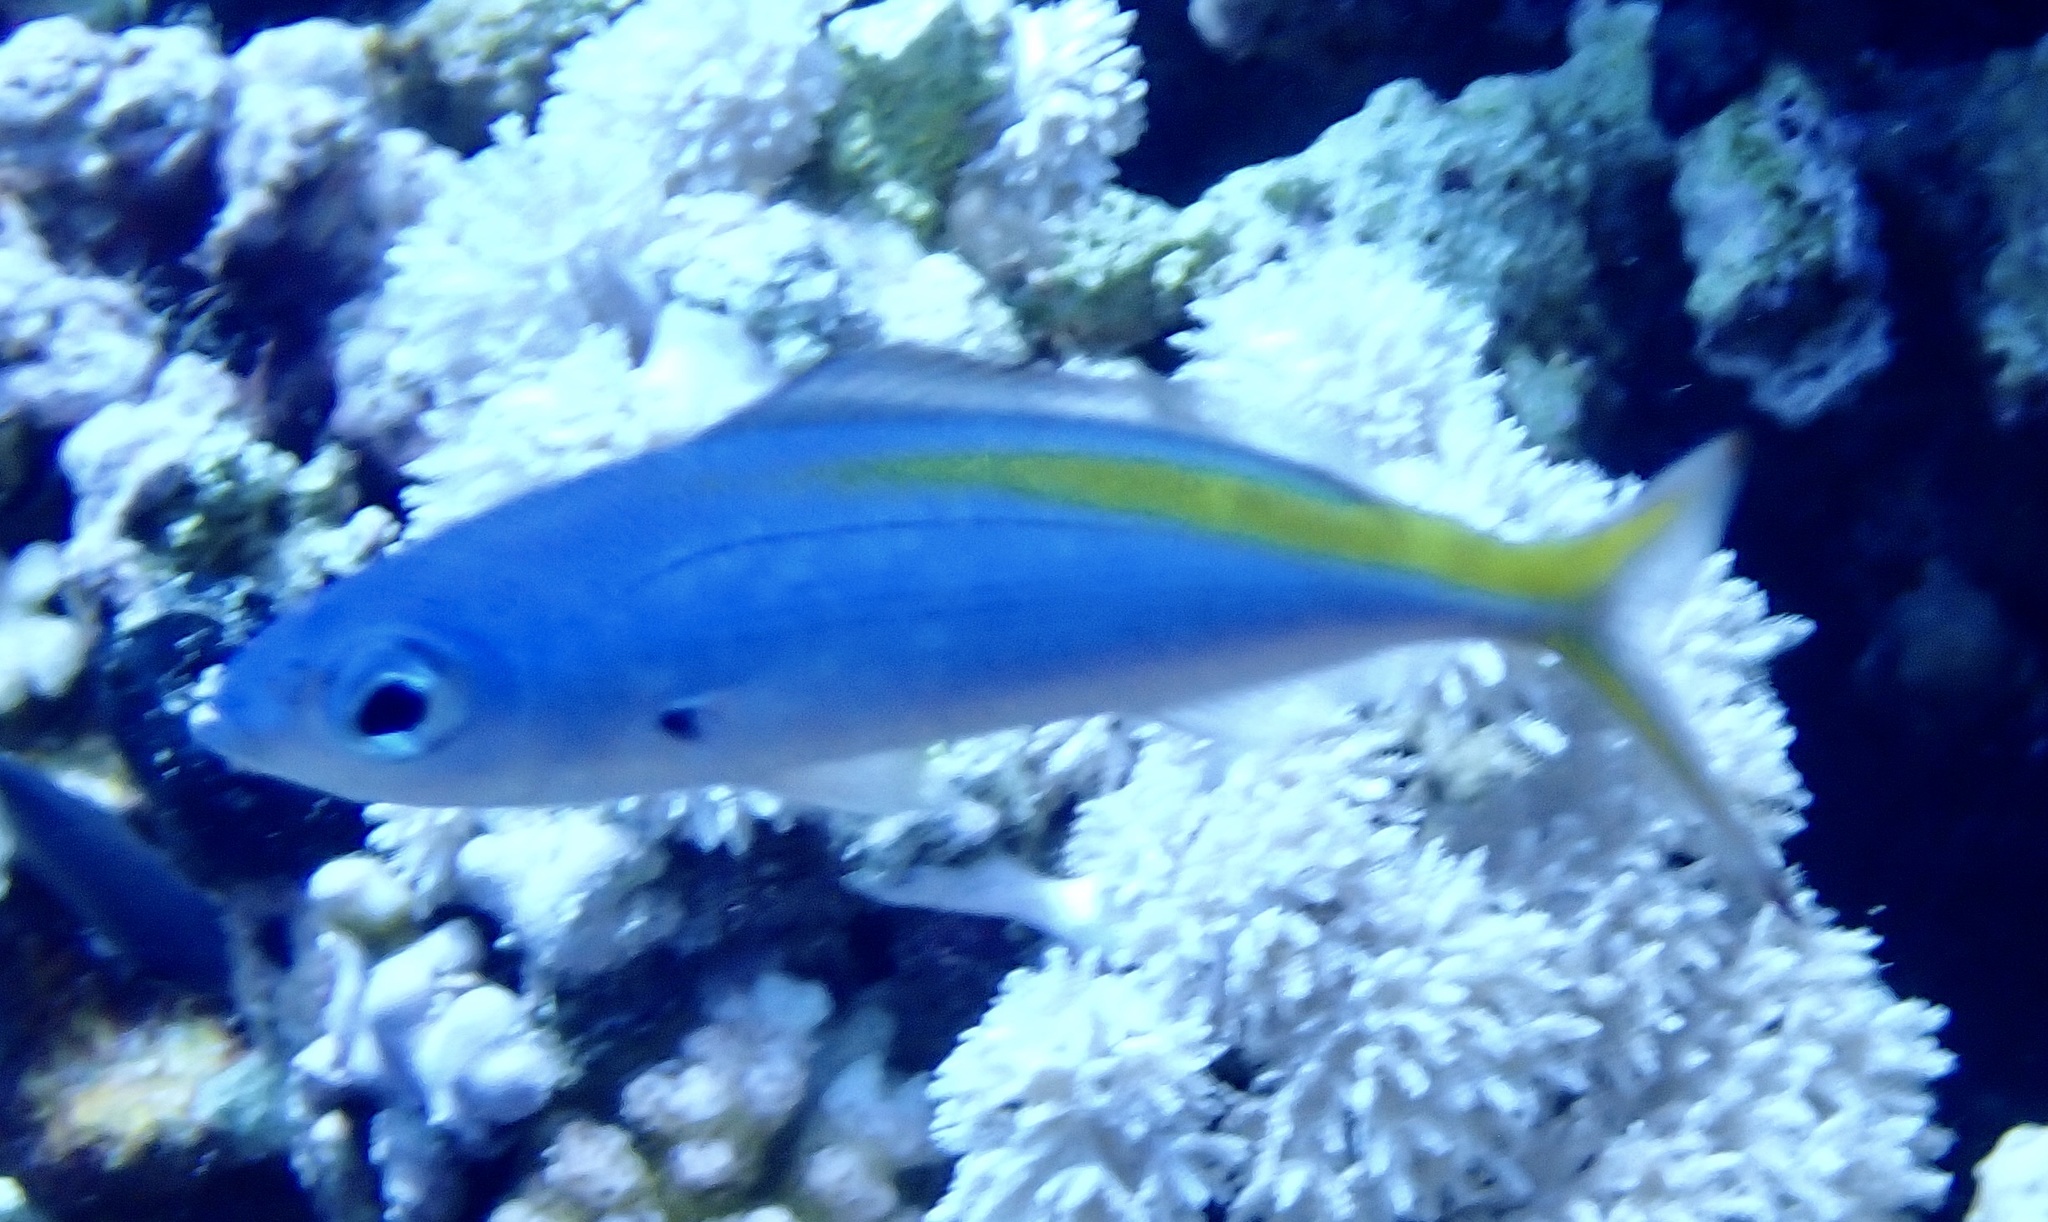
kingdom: Animalia
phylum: Chordata
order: Perciformes
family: Caesionidae
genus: Caesio
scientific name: Caesio suevica
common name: Suez fusilier
